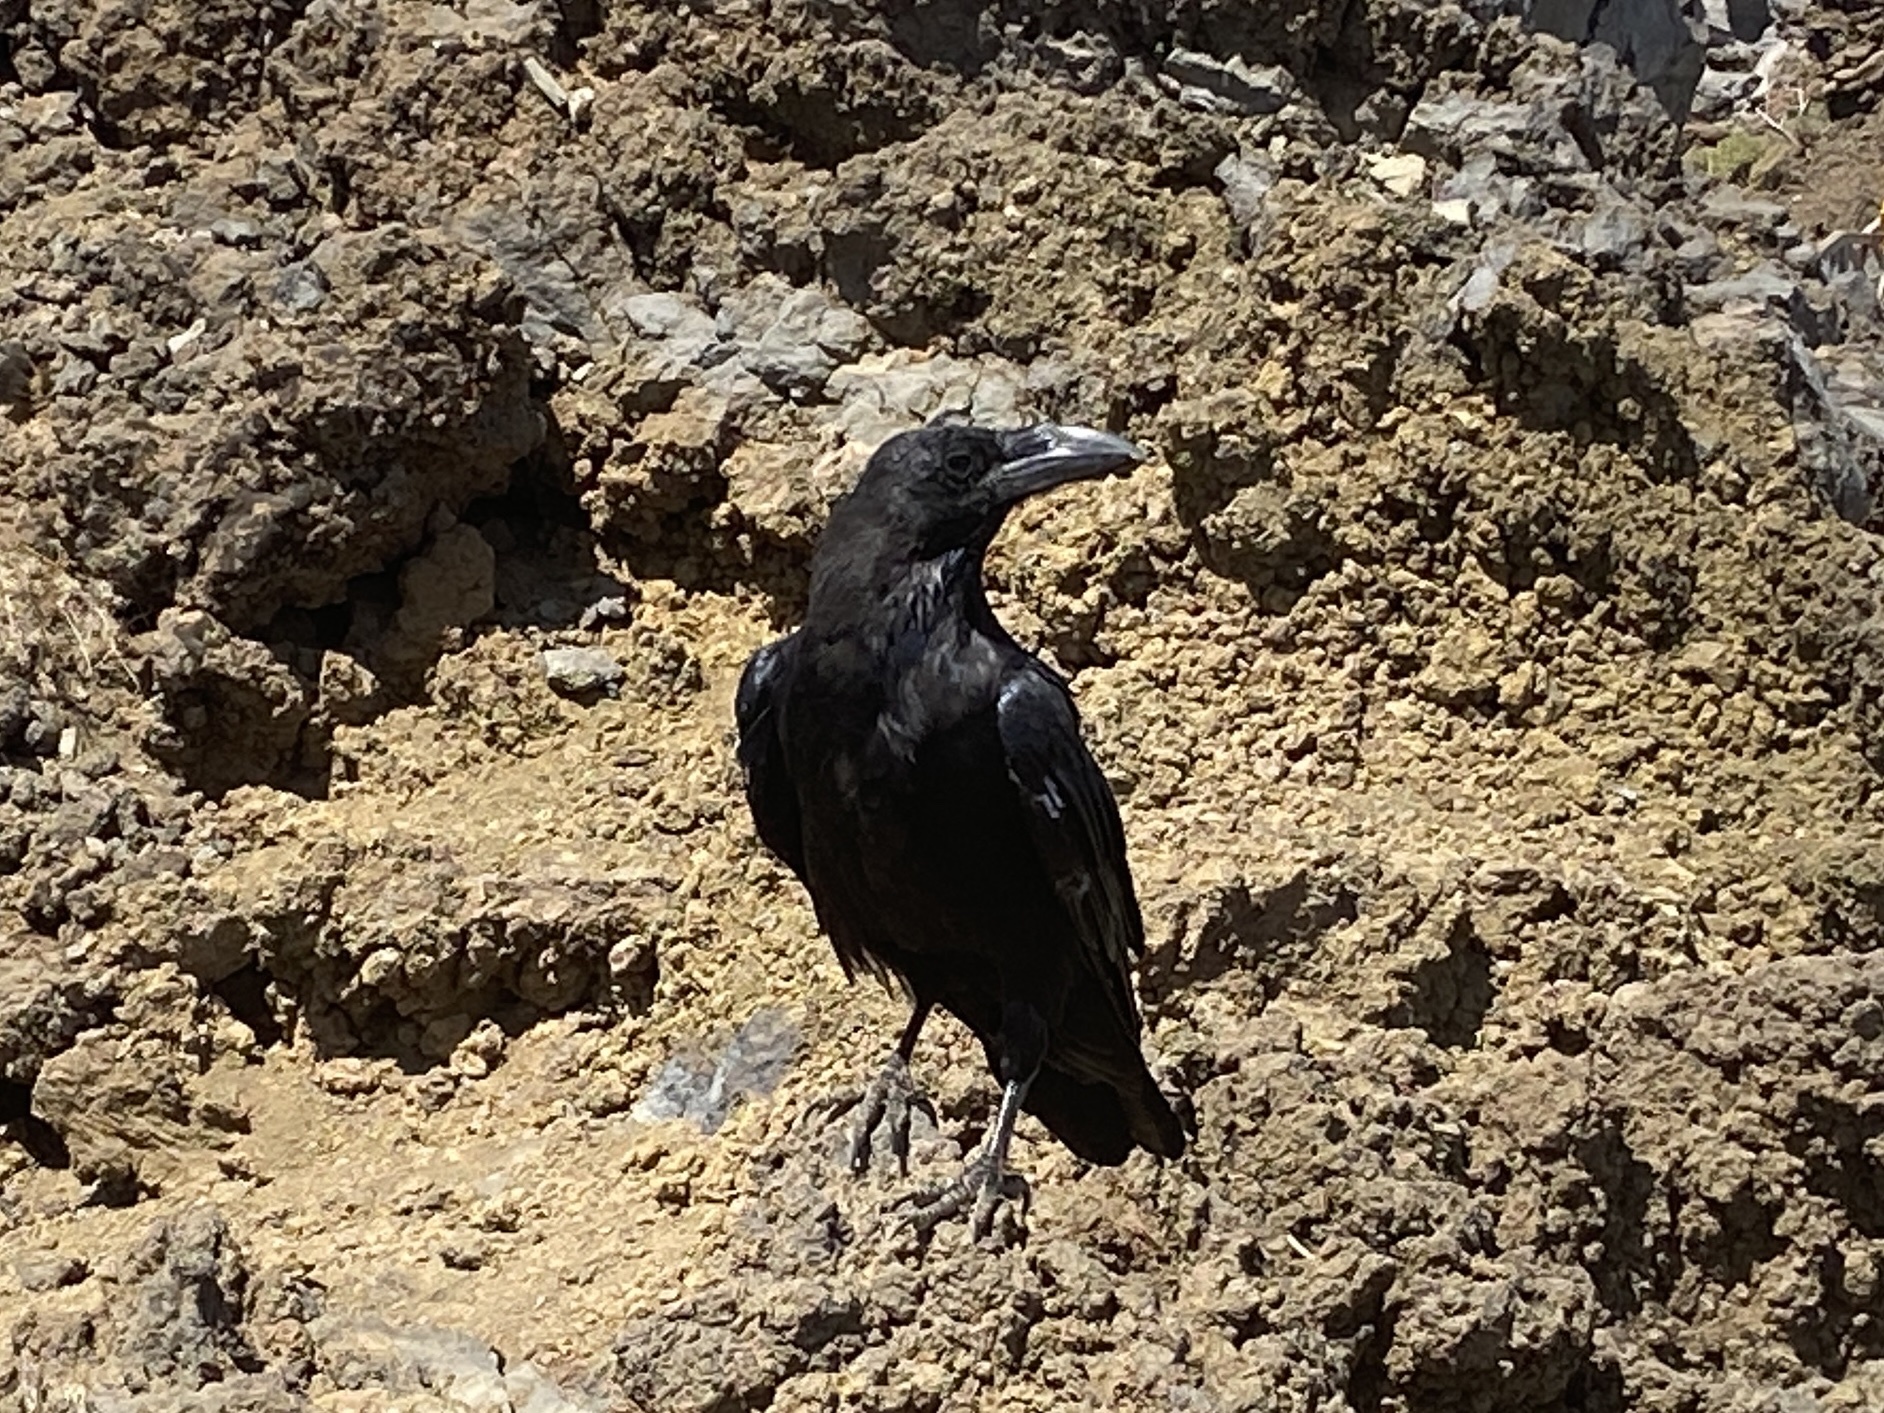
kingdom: Animalia
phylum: Chordata
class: Aves
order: Passeriformes
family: Corvidae
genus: Corvus
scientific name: Corvus corax
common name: Common raven
